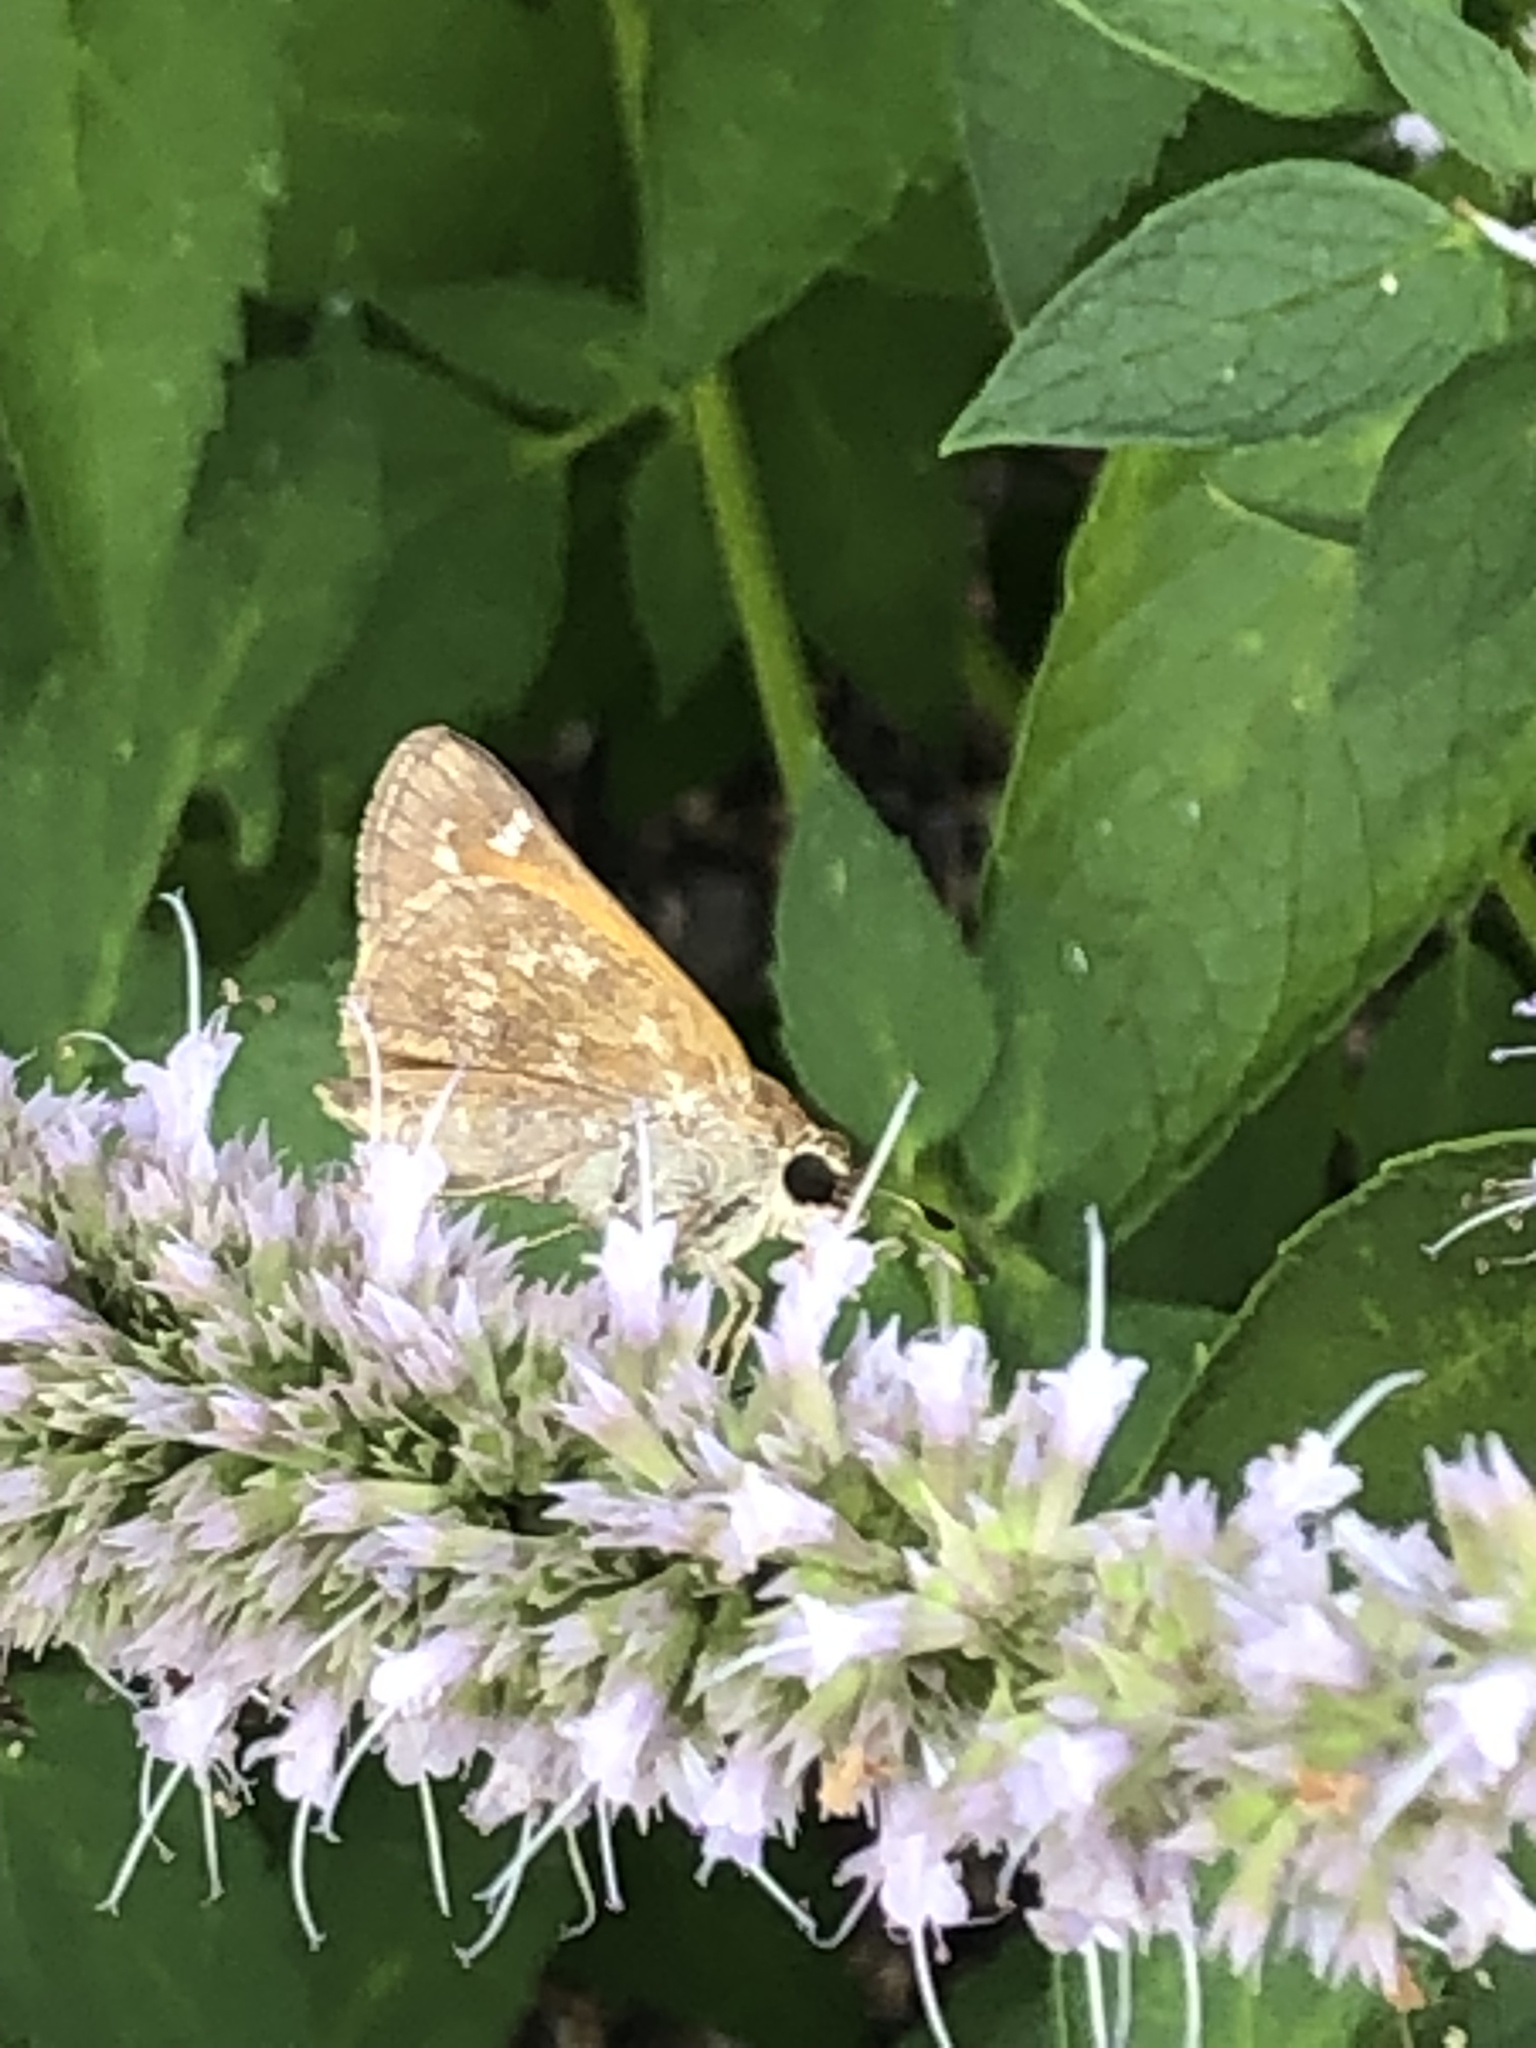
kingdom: Animalia
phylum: Arthropoda
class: Insecta
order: Lepidoptera
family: Hesperiidae
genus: Atalopedes
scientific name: Atalopedes
